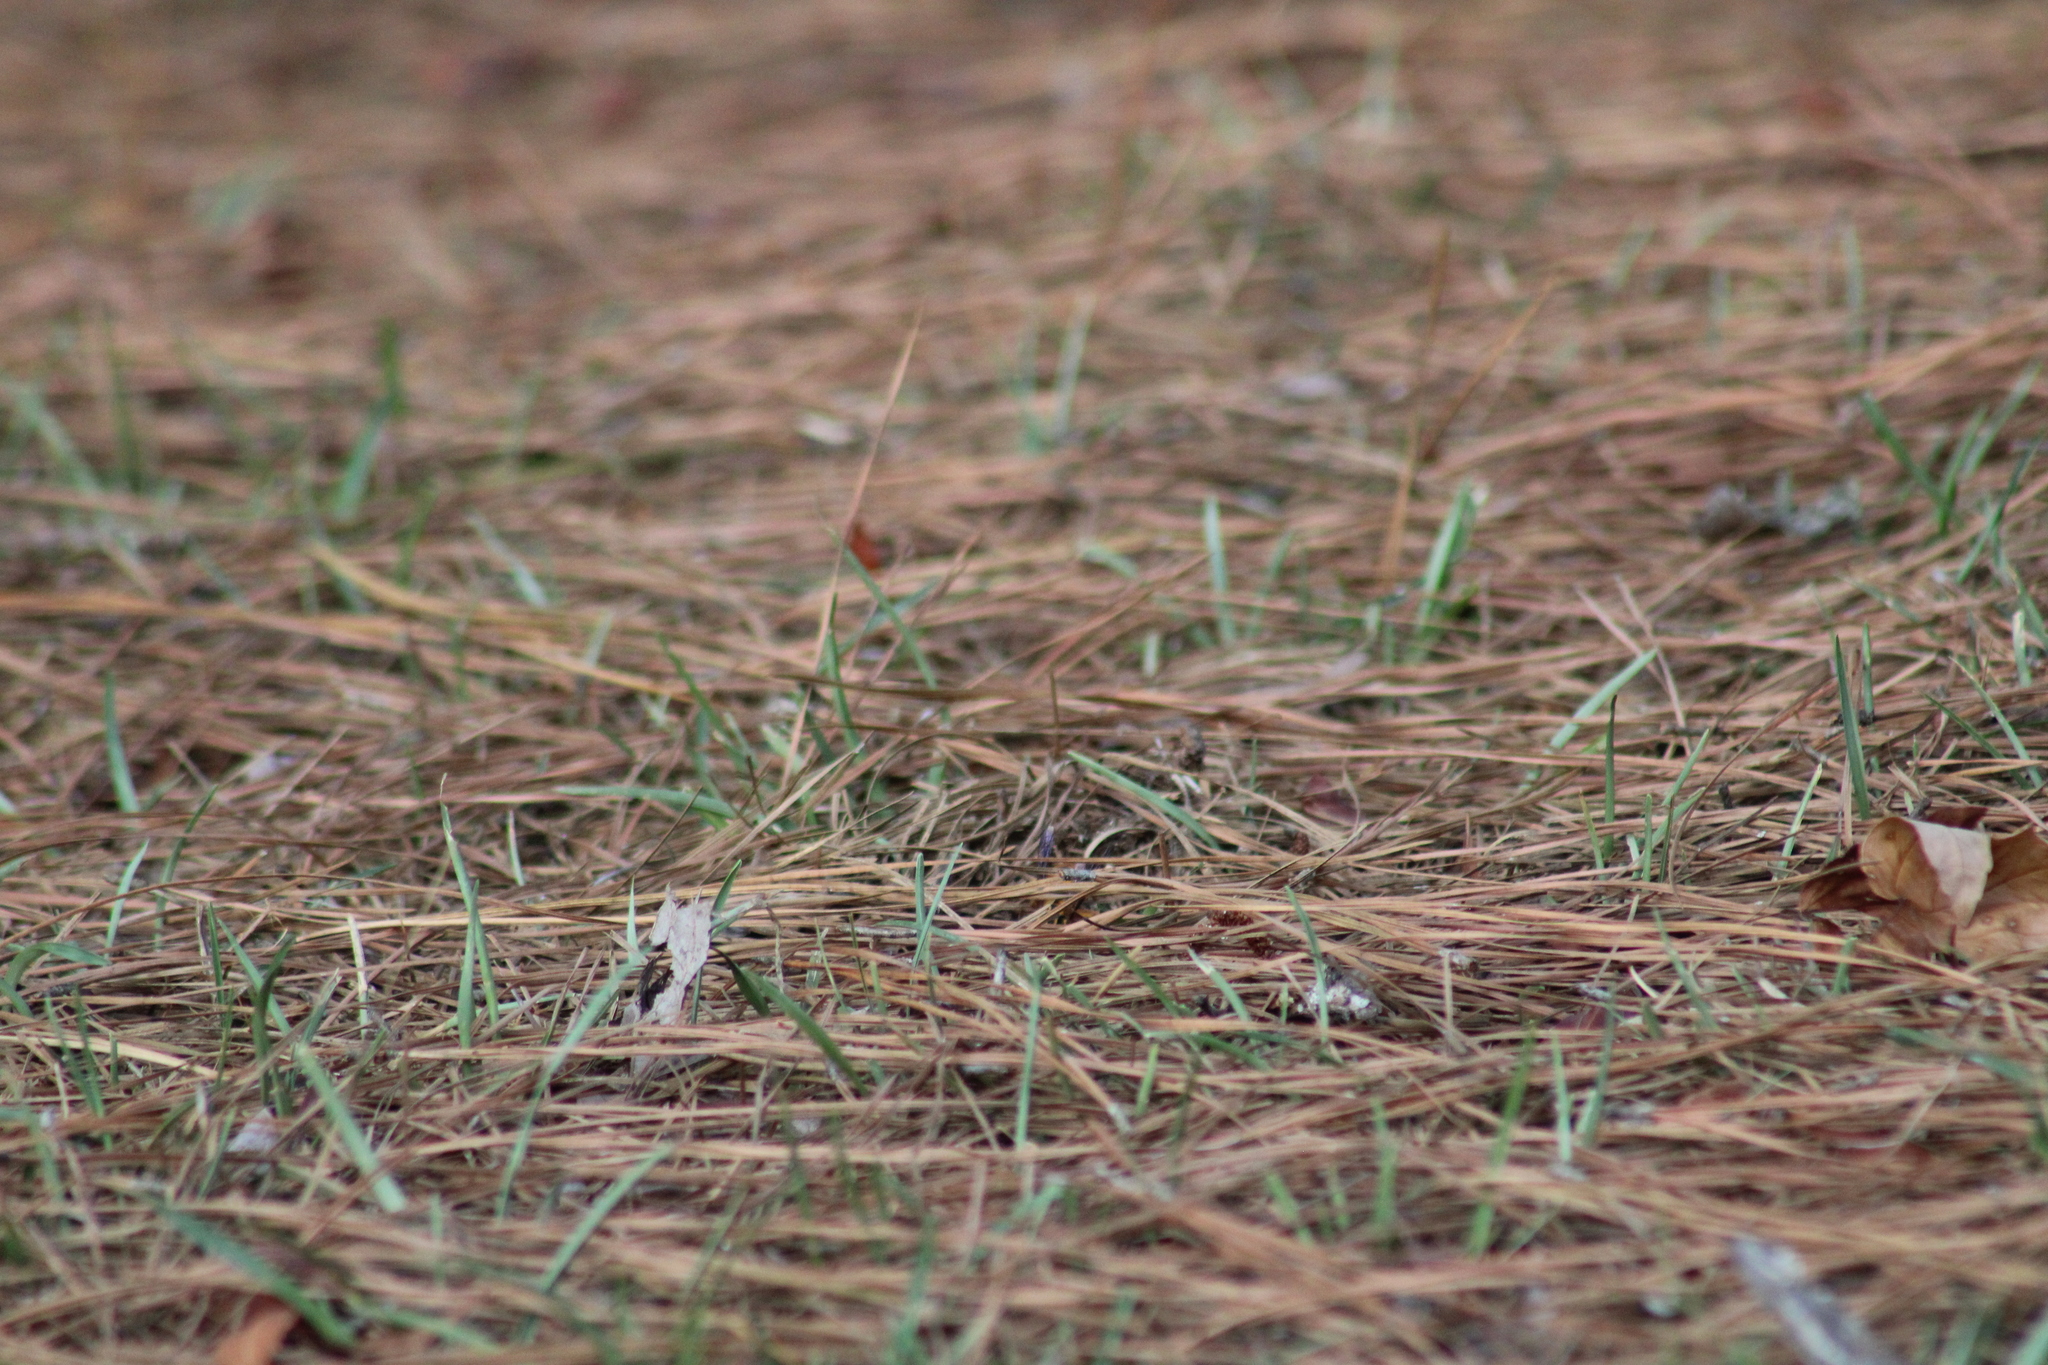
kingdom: Animalia
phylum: Arthropoda
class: Insecta
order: Hymenoptera
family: Vespidae
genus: Vespula
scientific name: Vespula squamosa
